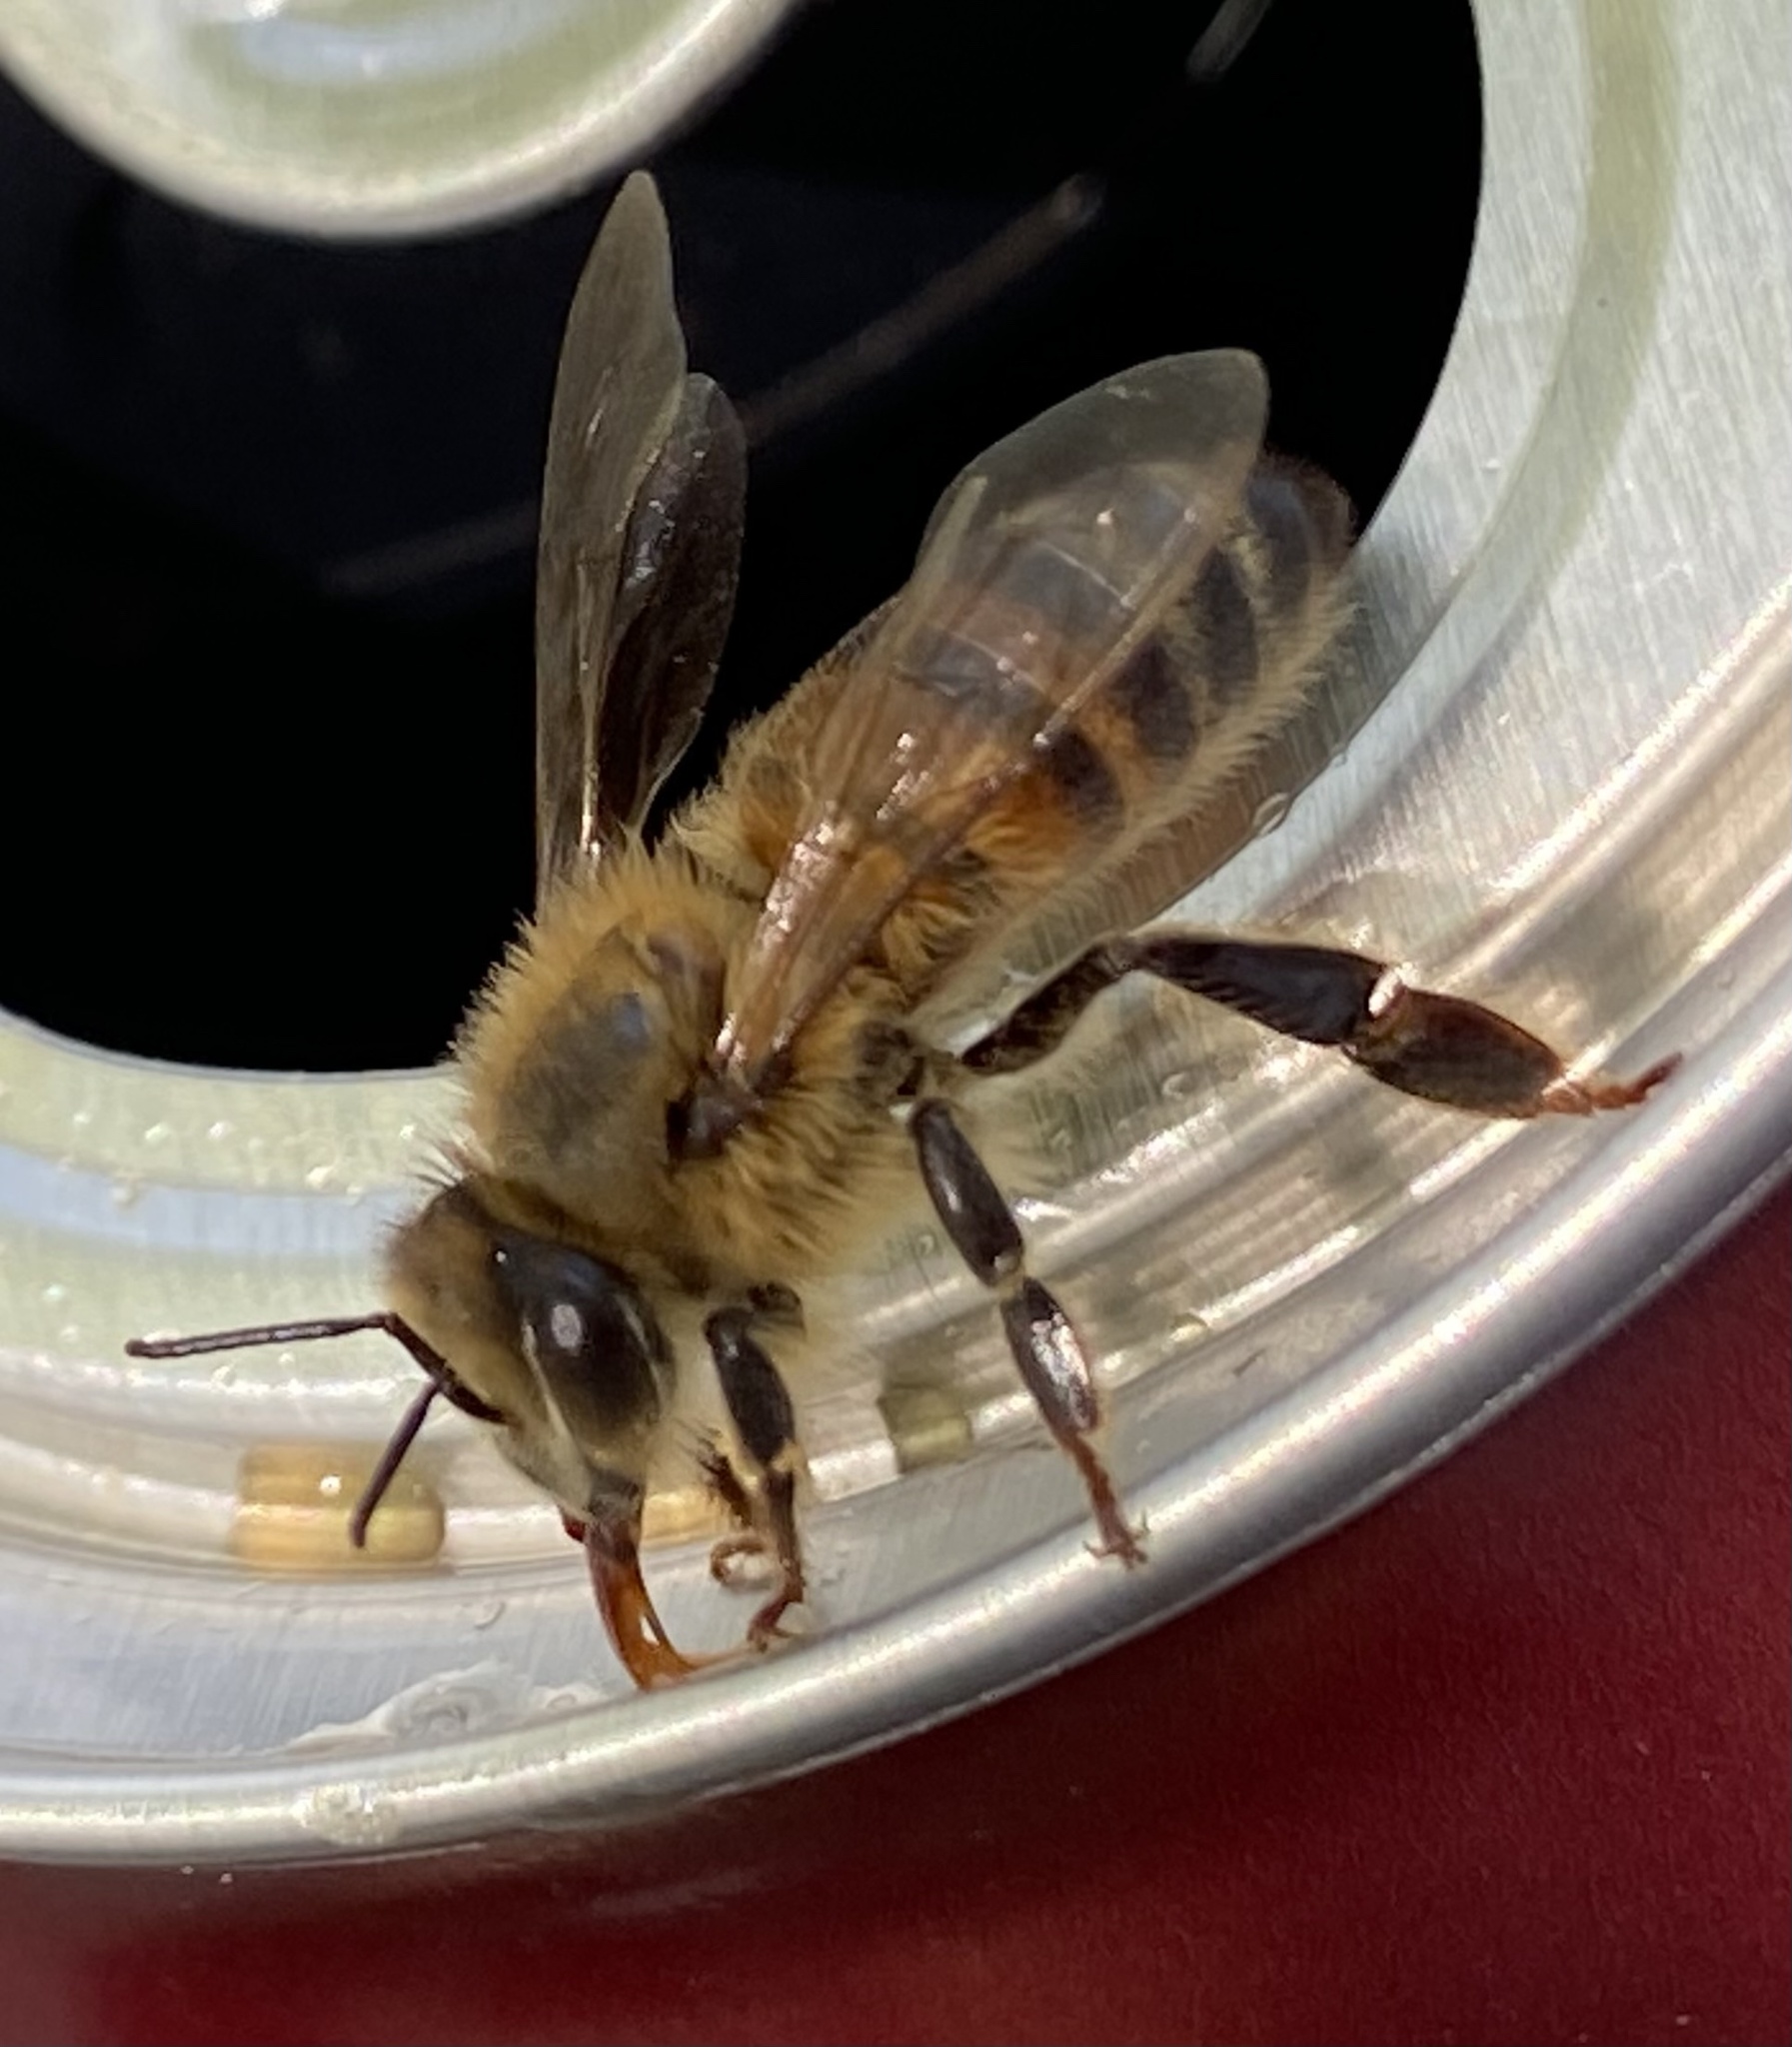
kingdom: Animalia
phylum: Arthropoda
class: Insecta
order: Hymenoptera
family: Apidae
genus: Apis
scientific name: Apis mellifera
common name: Honey bee
